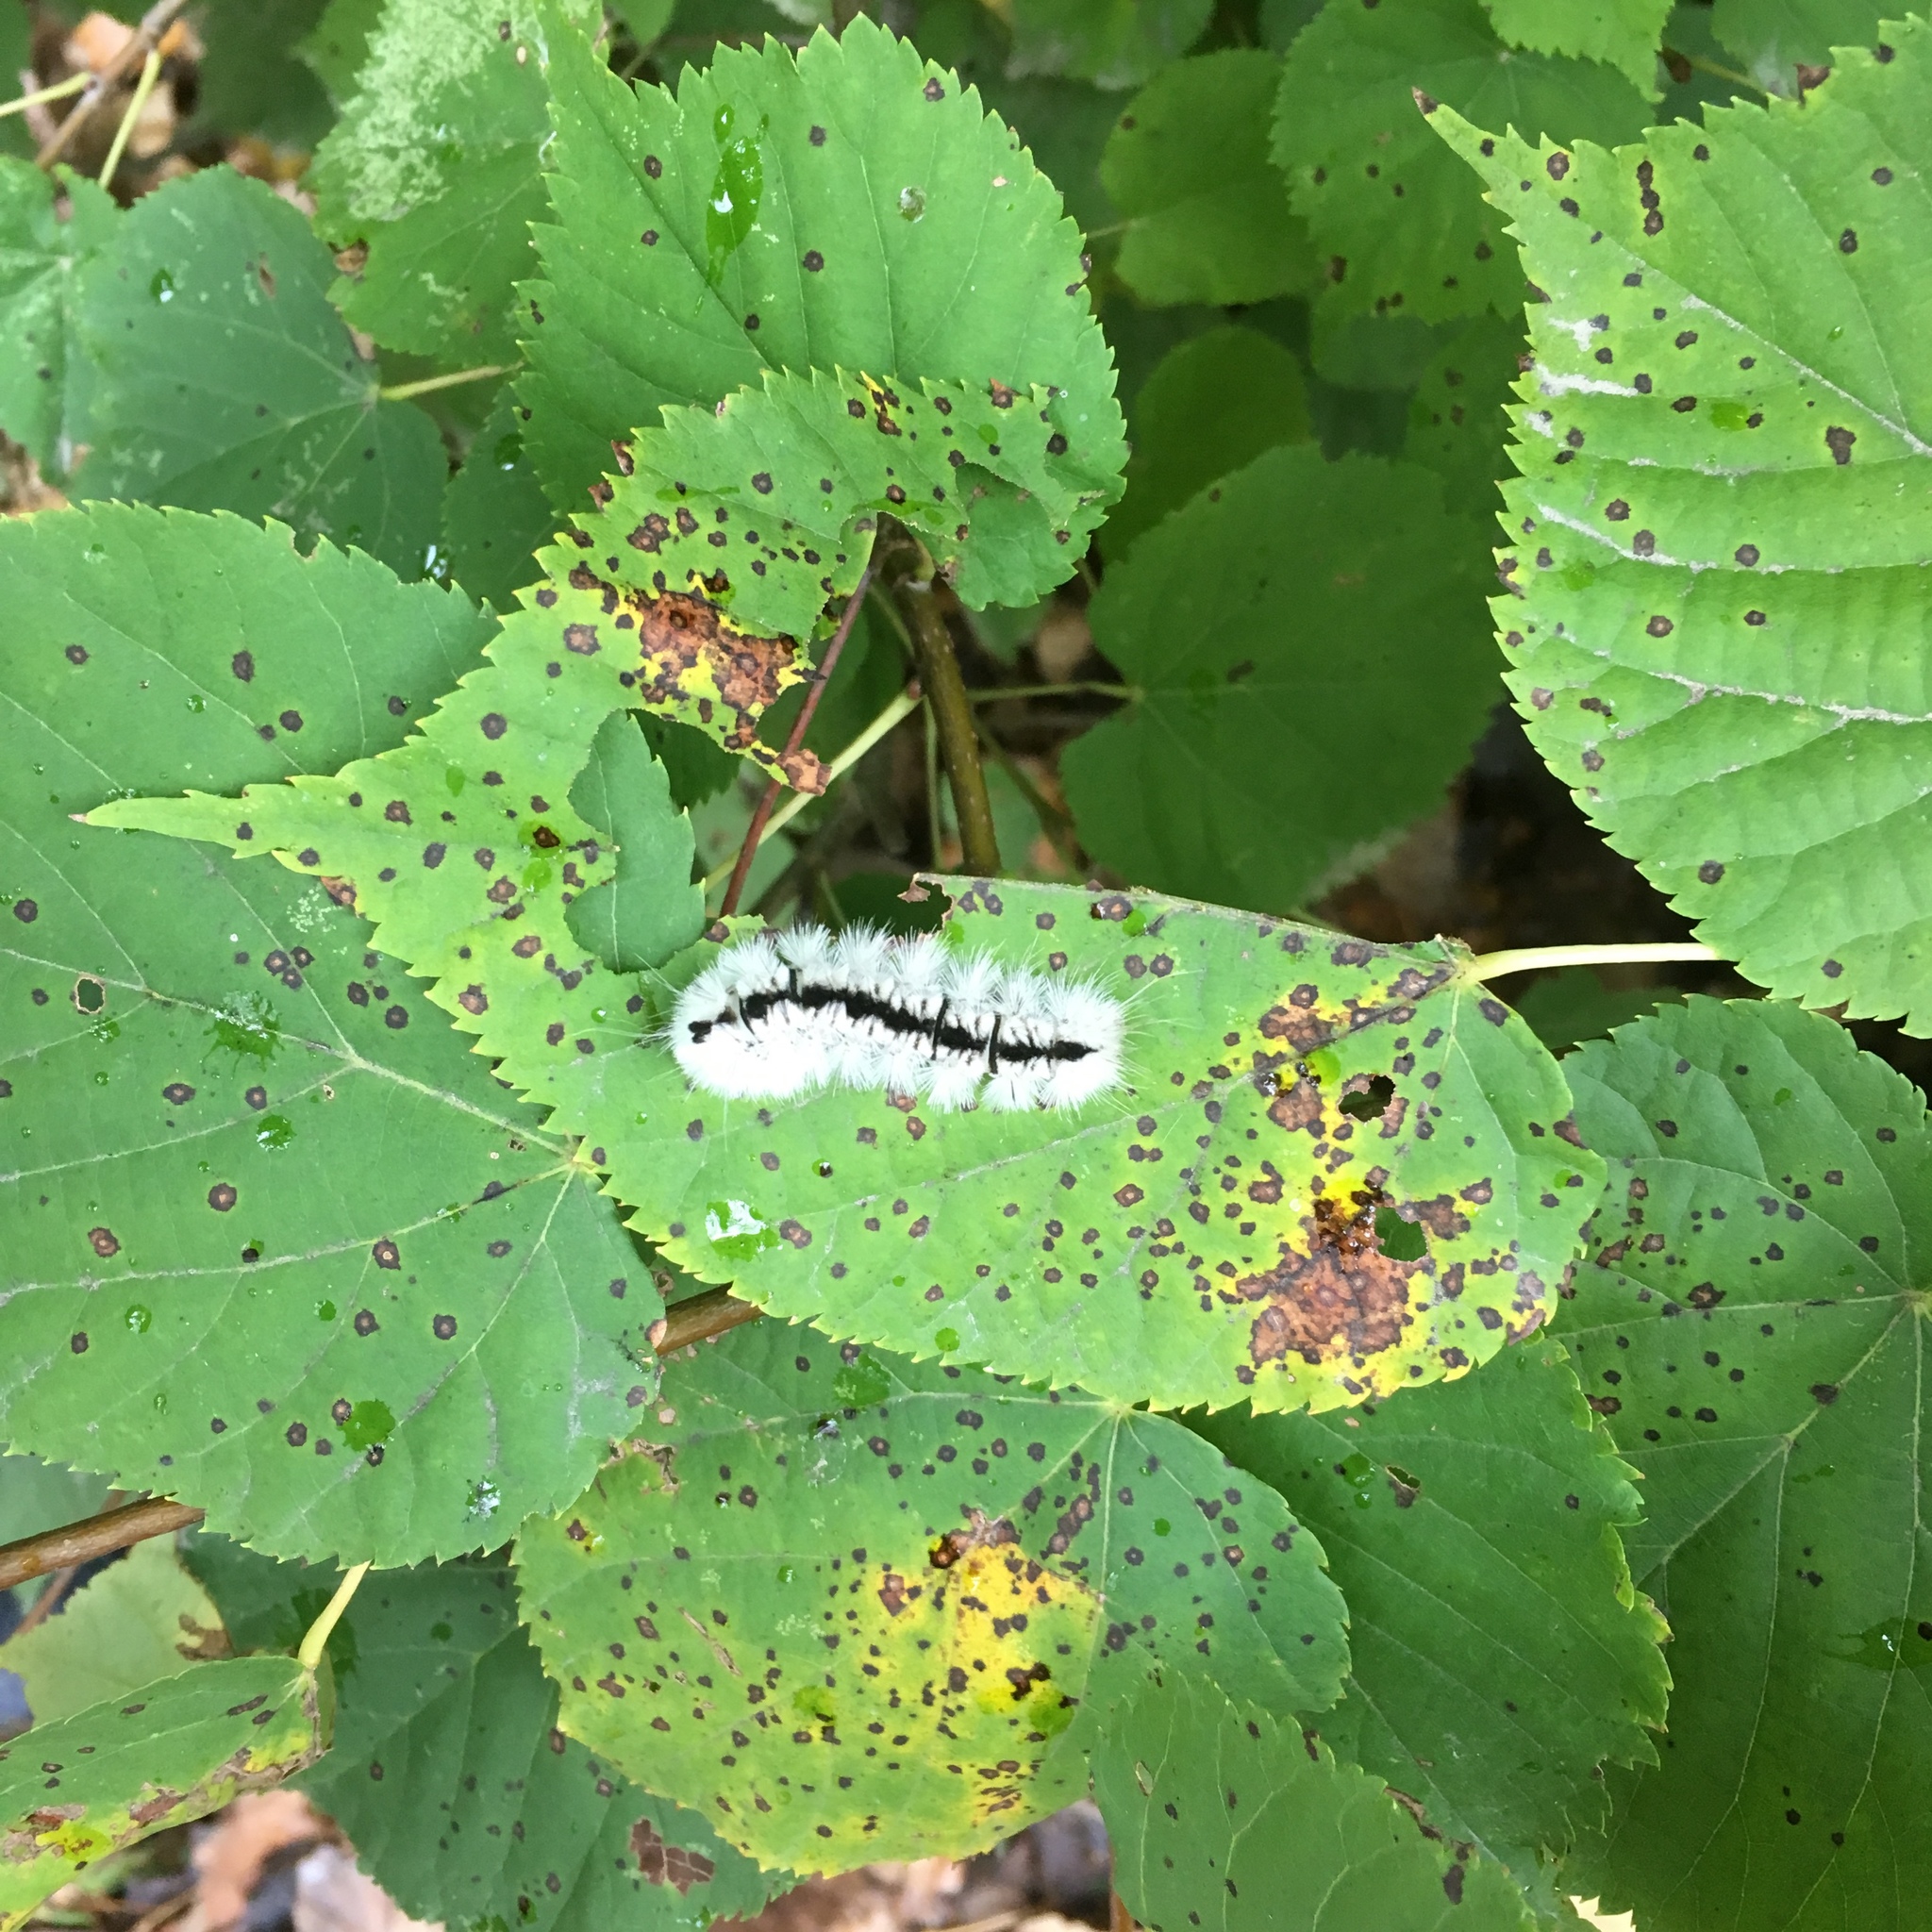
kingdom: Animalia
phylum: Arthropoda
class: Insecta
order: Lepidoptera
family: Erebidae
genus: Lophocampa
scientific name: Lophocampa caryae
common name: Hickory tussock moth
